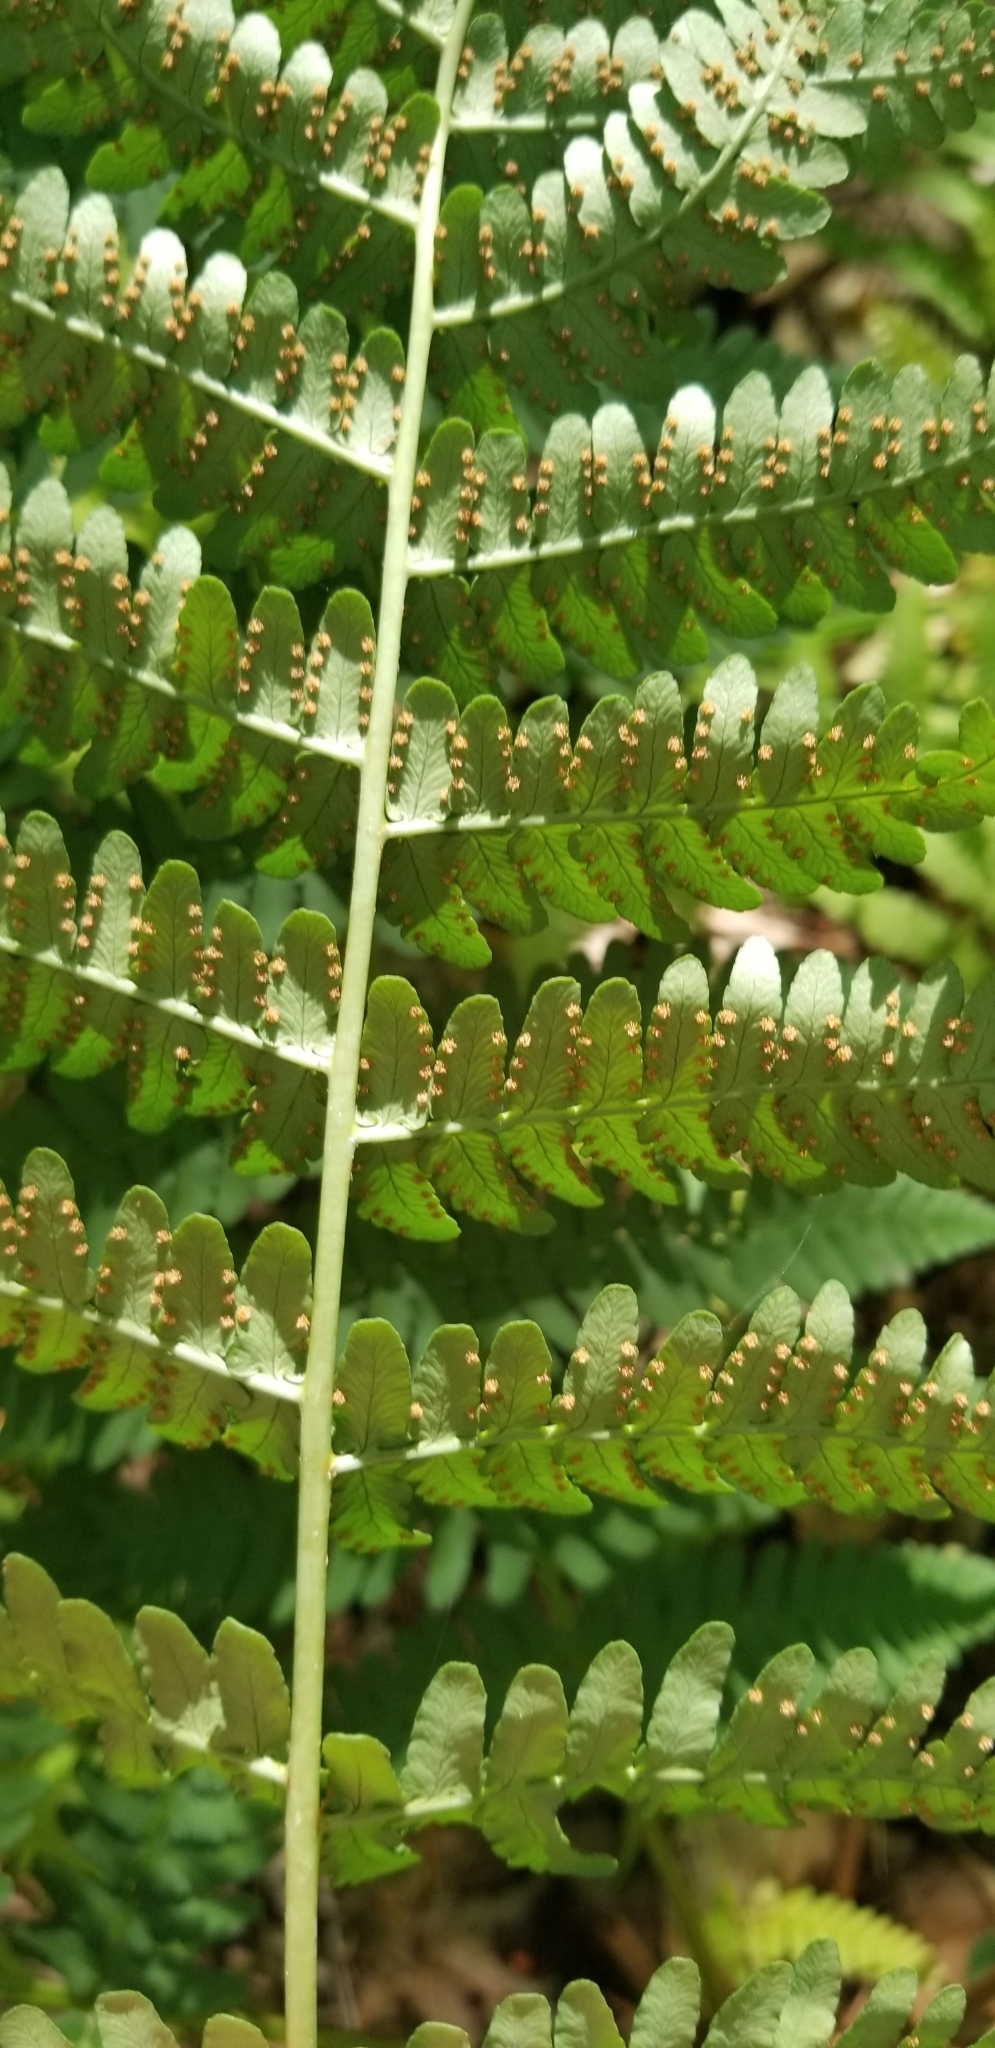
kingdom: Plantae
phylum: Tracheophyta
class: Polypodiopsida
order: Polypodiales
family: Dryopteridaceae
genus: Dryopteris
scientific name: Dryopteris marginalis
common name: Marginal wood fern
